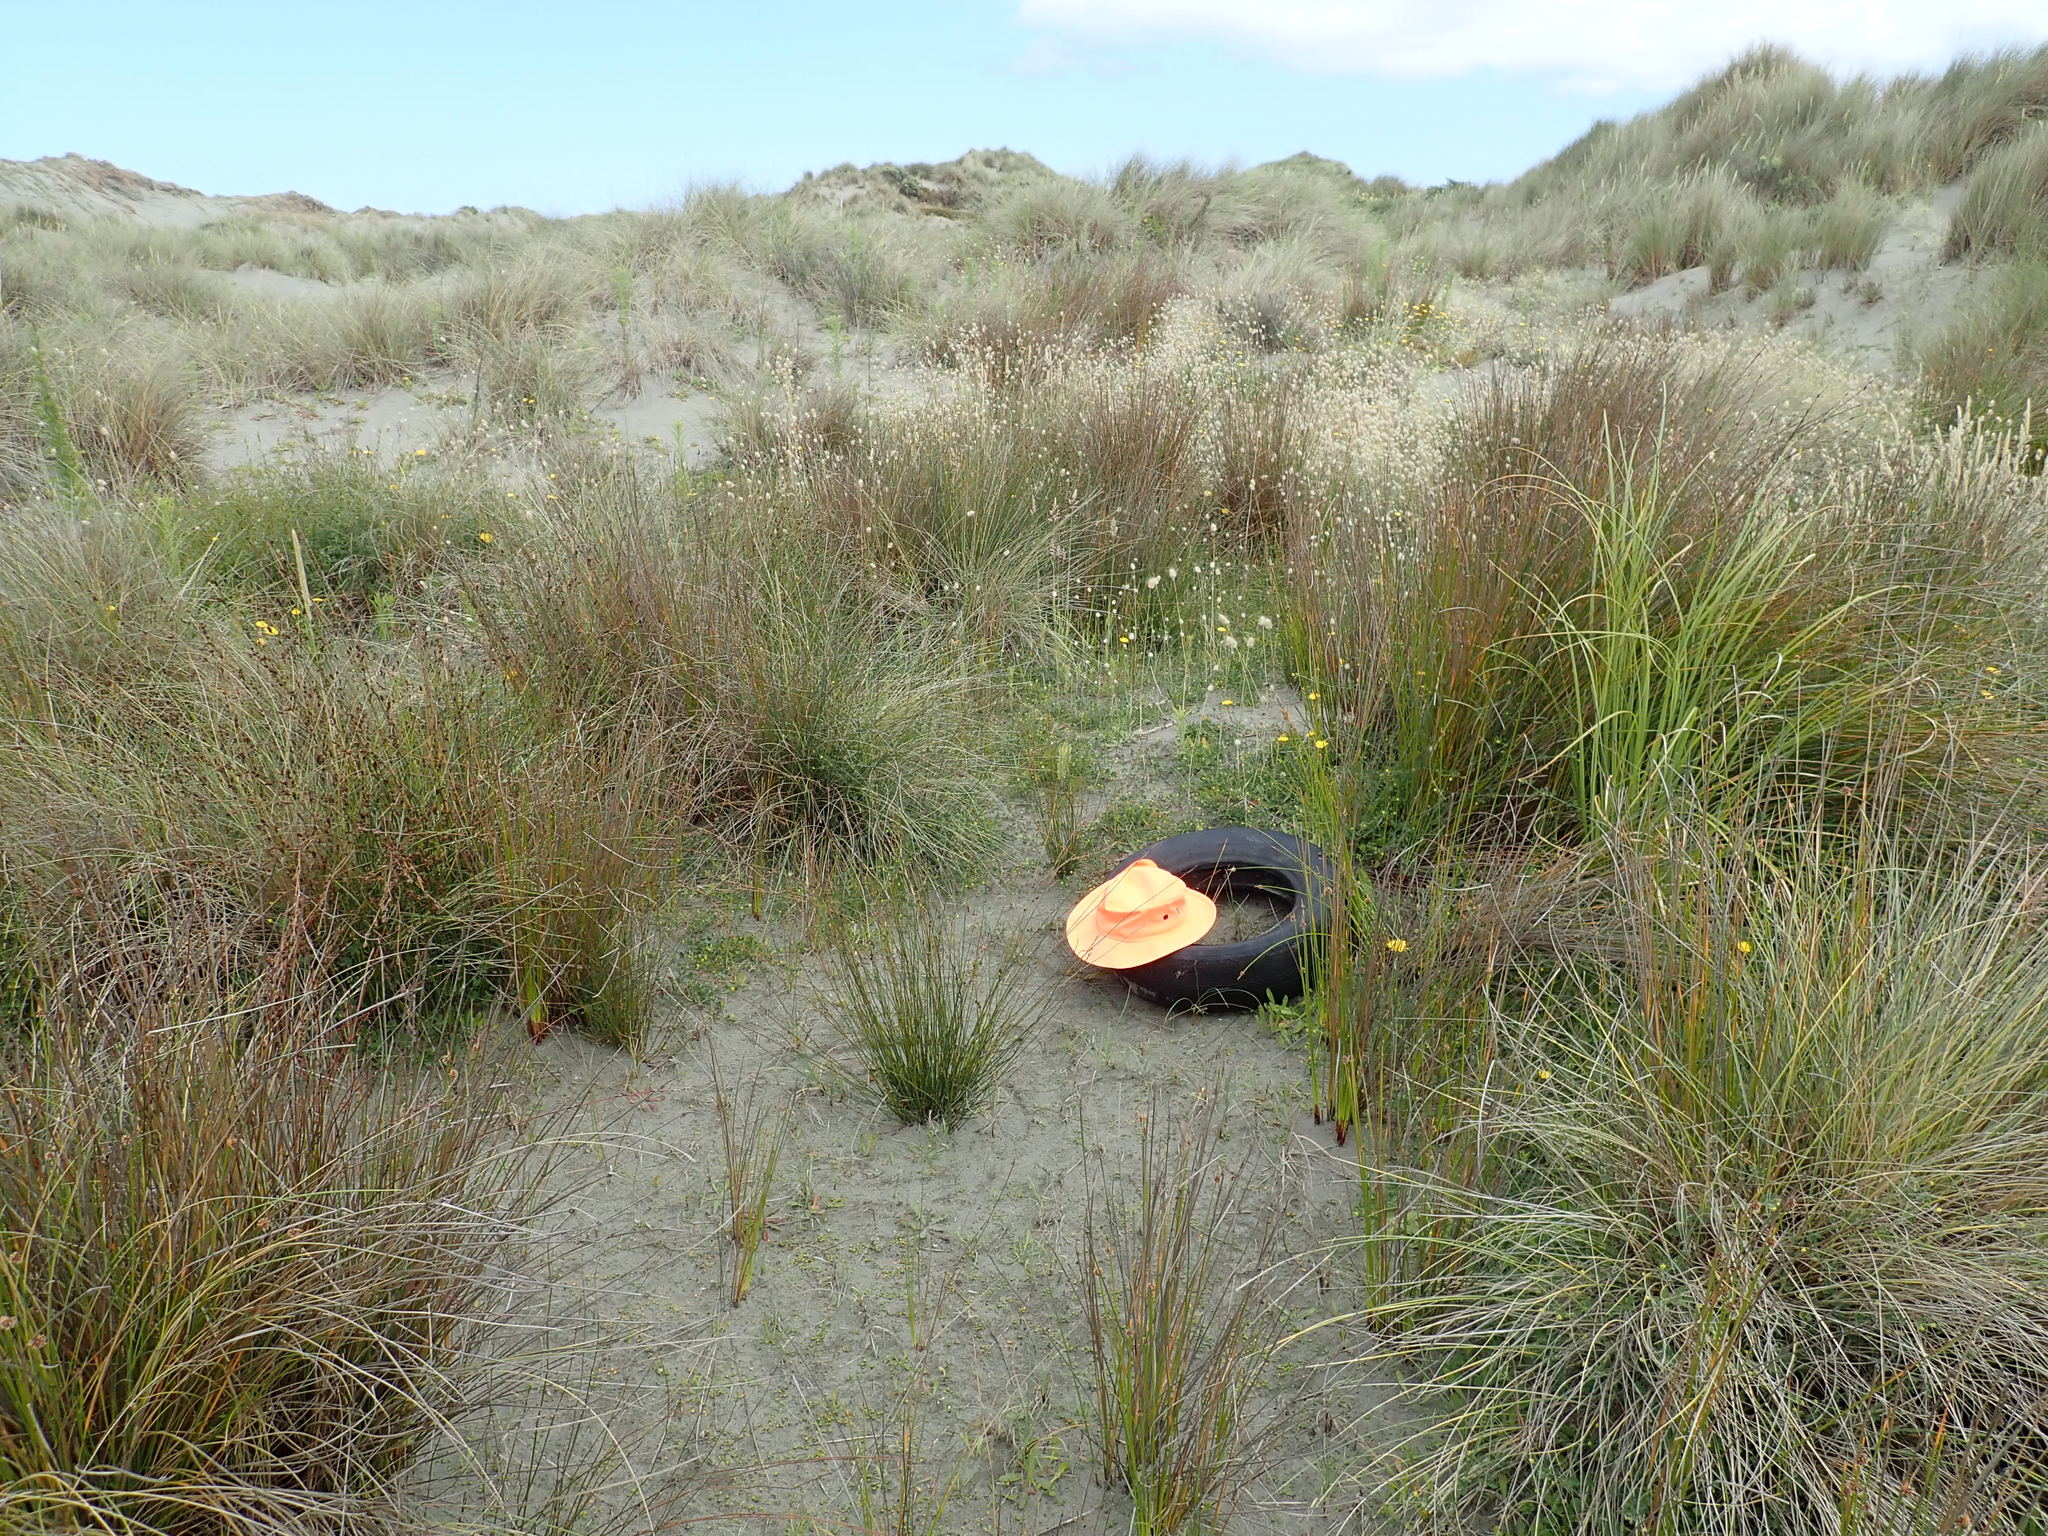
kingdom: Animalia
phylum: Arthropoda
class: Arachnida
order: Araneae
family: Theridiidae
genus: Latrodectus
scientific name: Latrodectus katipo
